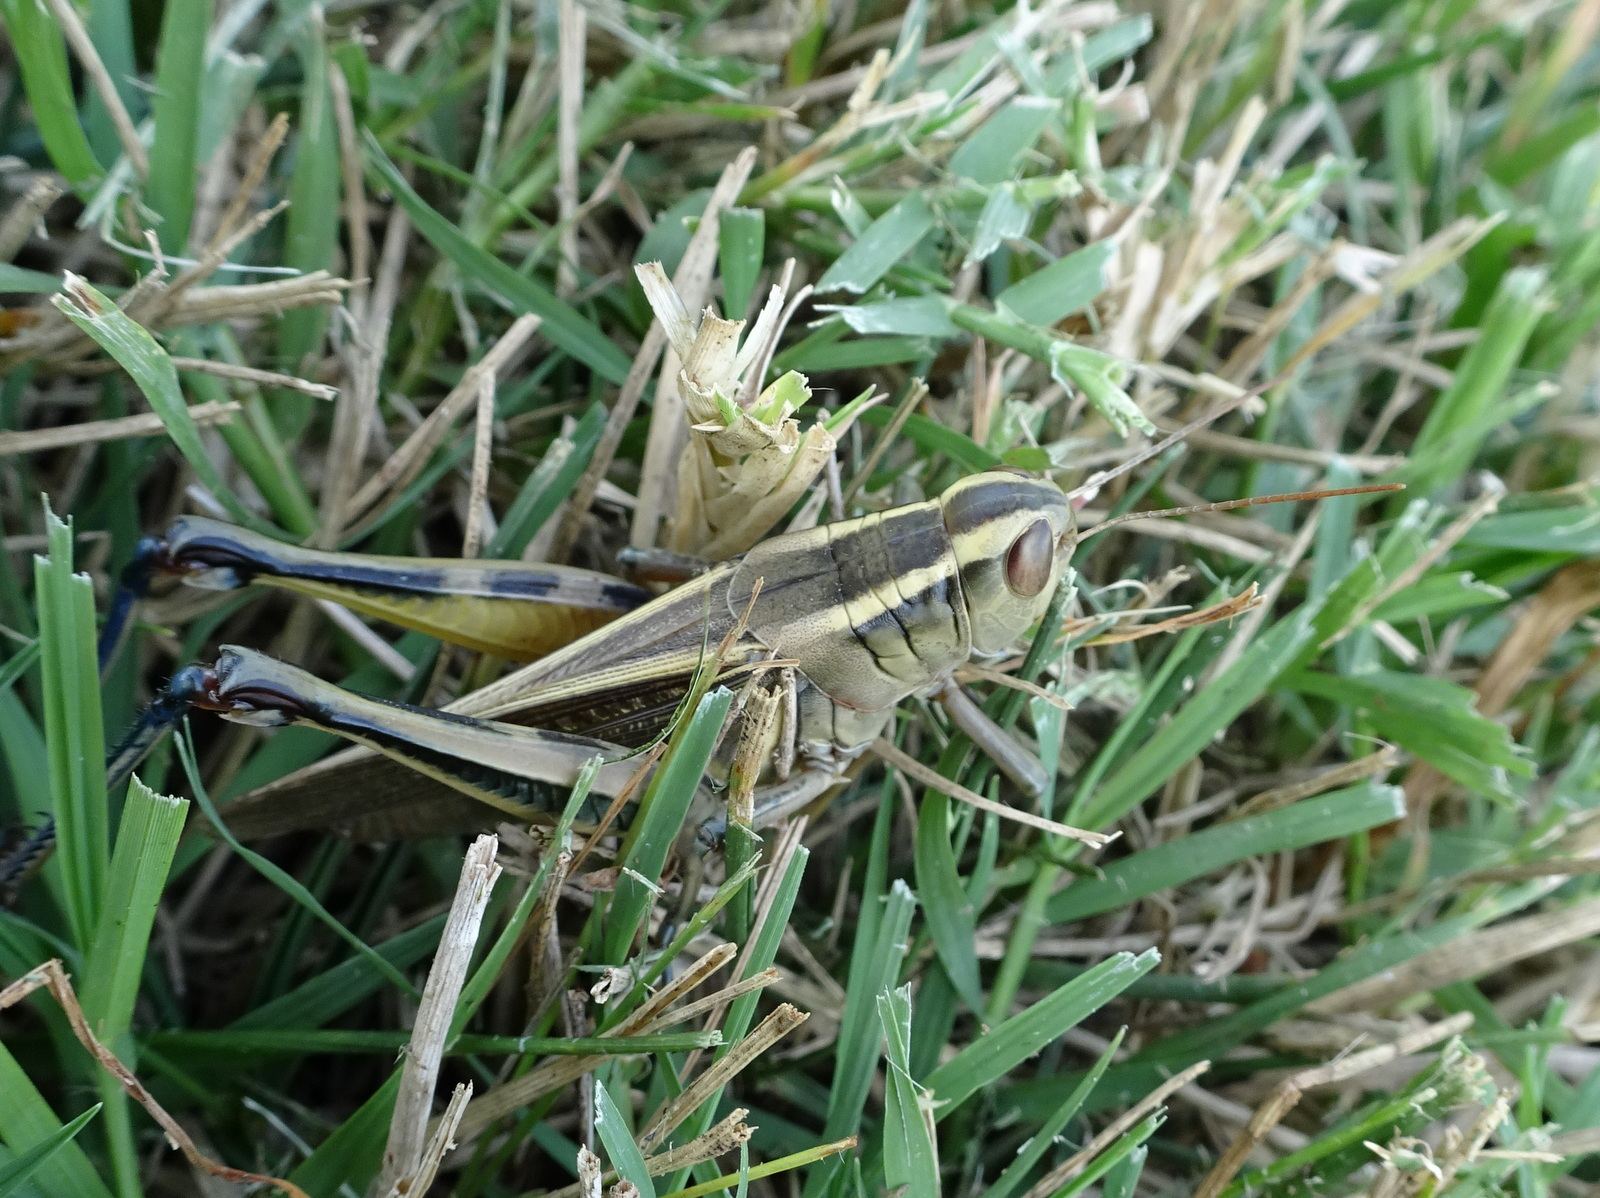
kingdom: Animalia
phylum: Arthropoda
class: Insecta
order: Orthoptera
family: Acrididae
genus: Melanoplus
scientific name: Melanoplus bivittatus
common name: Two-striped grasshopper
